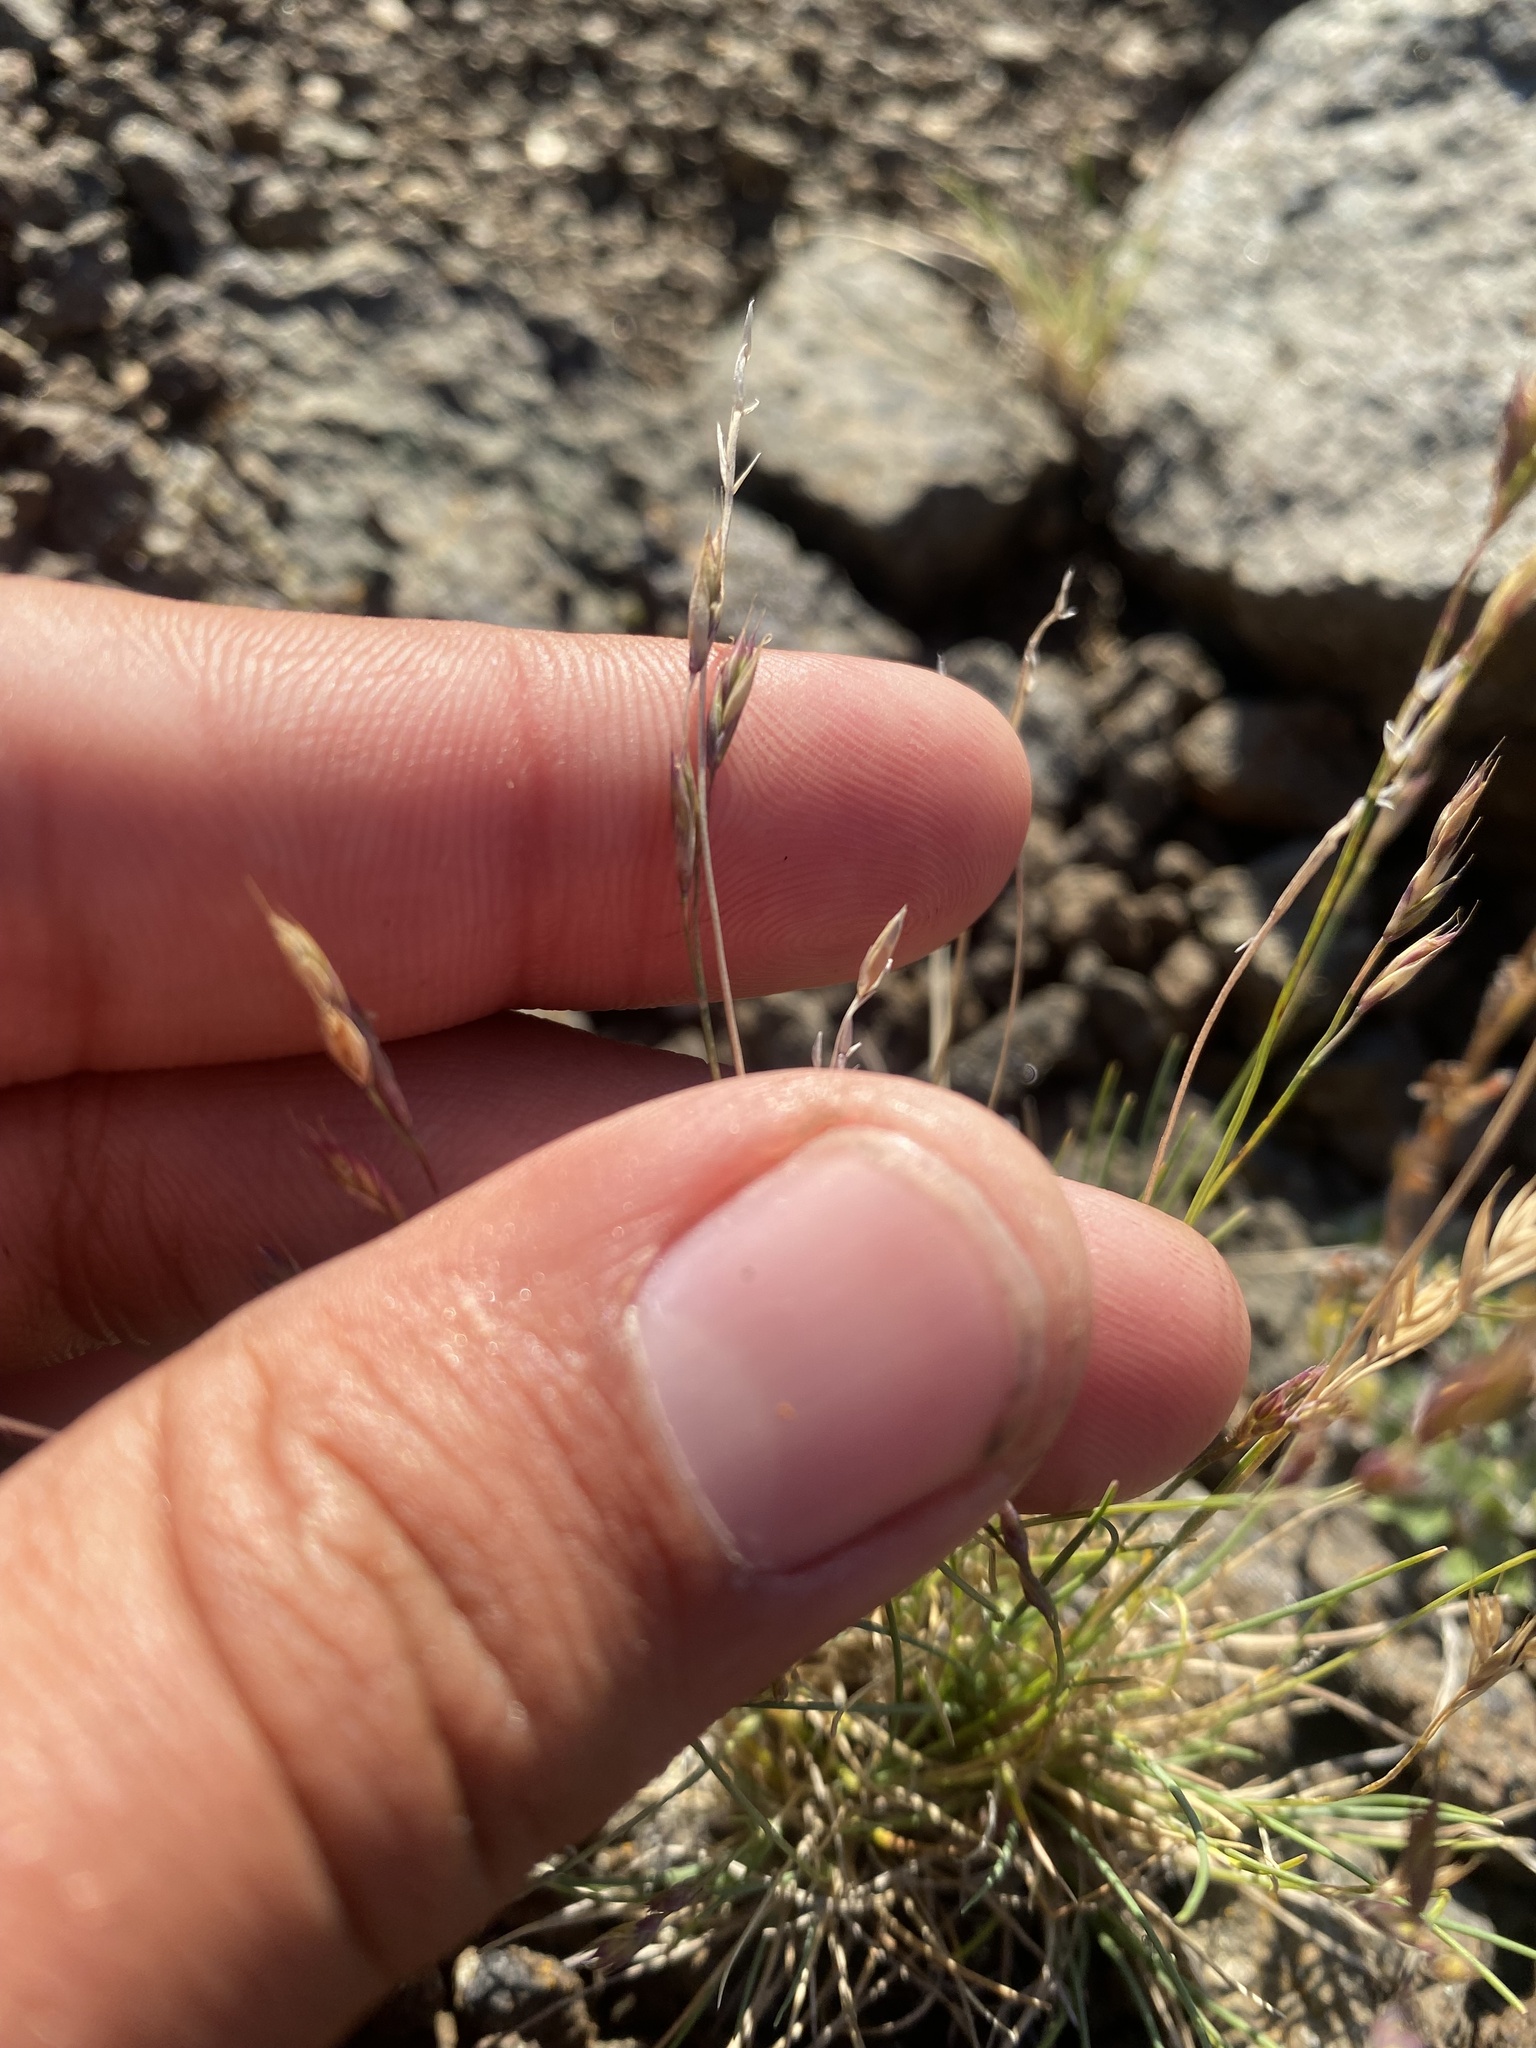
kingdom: Plantae
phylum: Tracheophyta
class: Liliopsida
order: Poales
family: Poaceae
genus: Festuca
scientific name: Festuca auriculata
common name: Eared fescue
